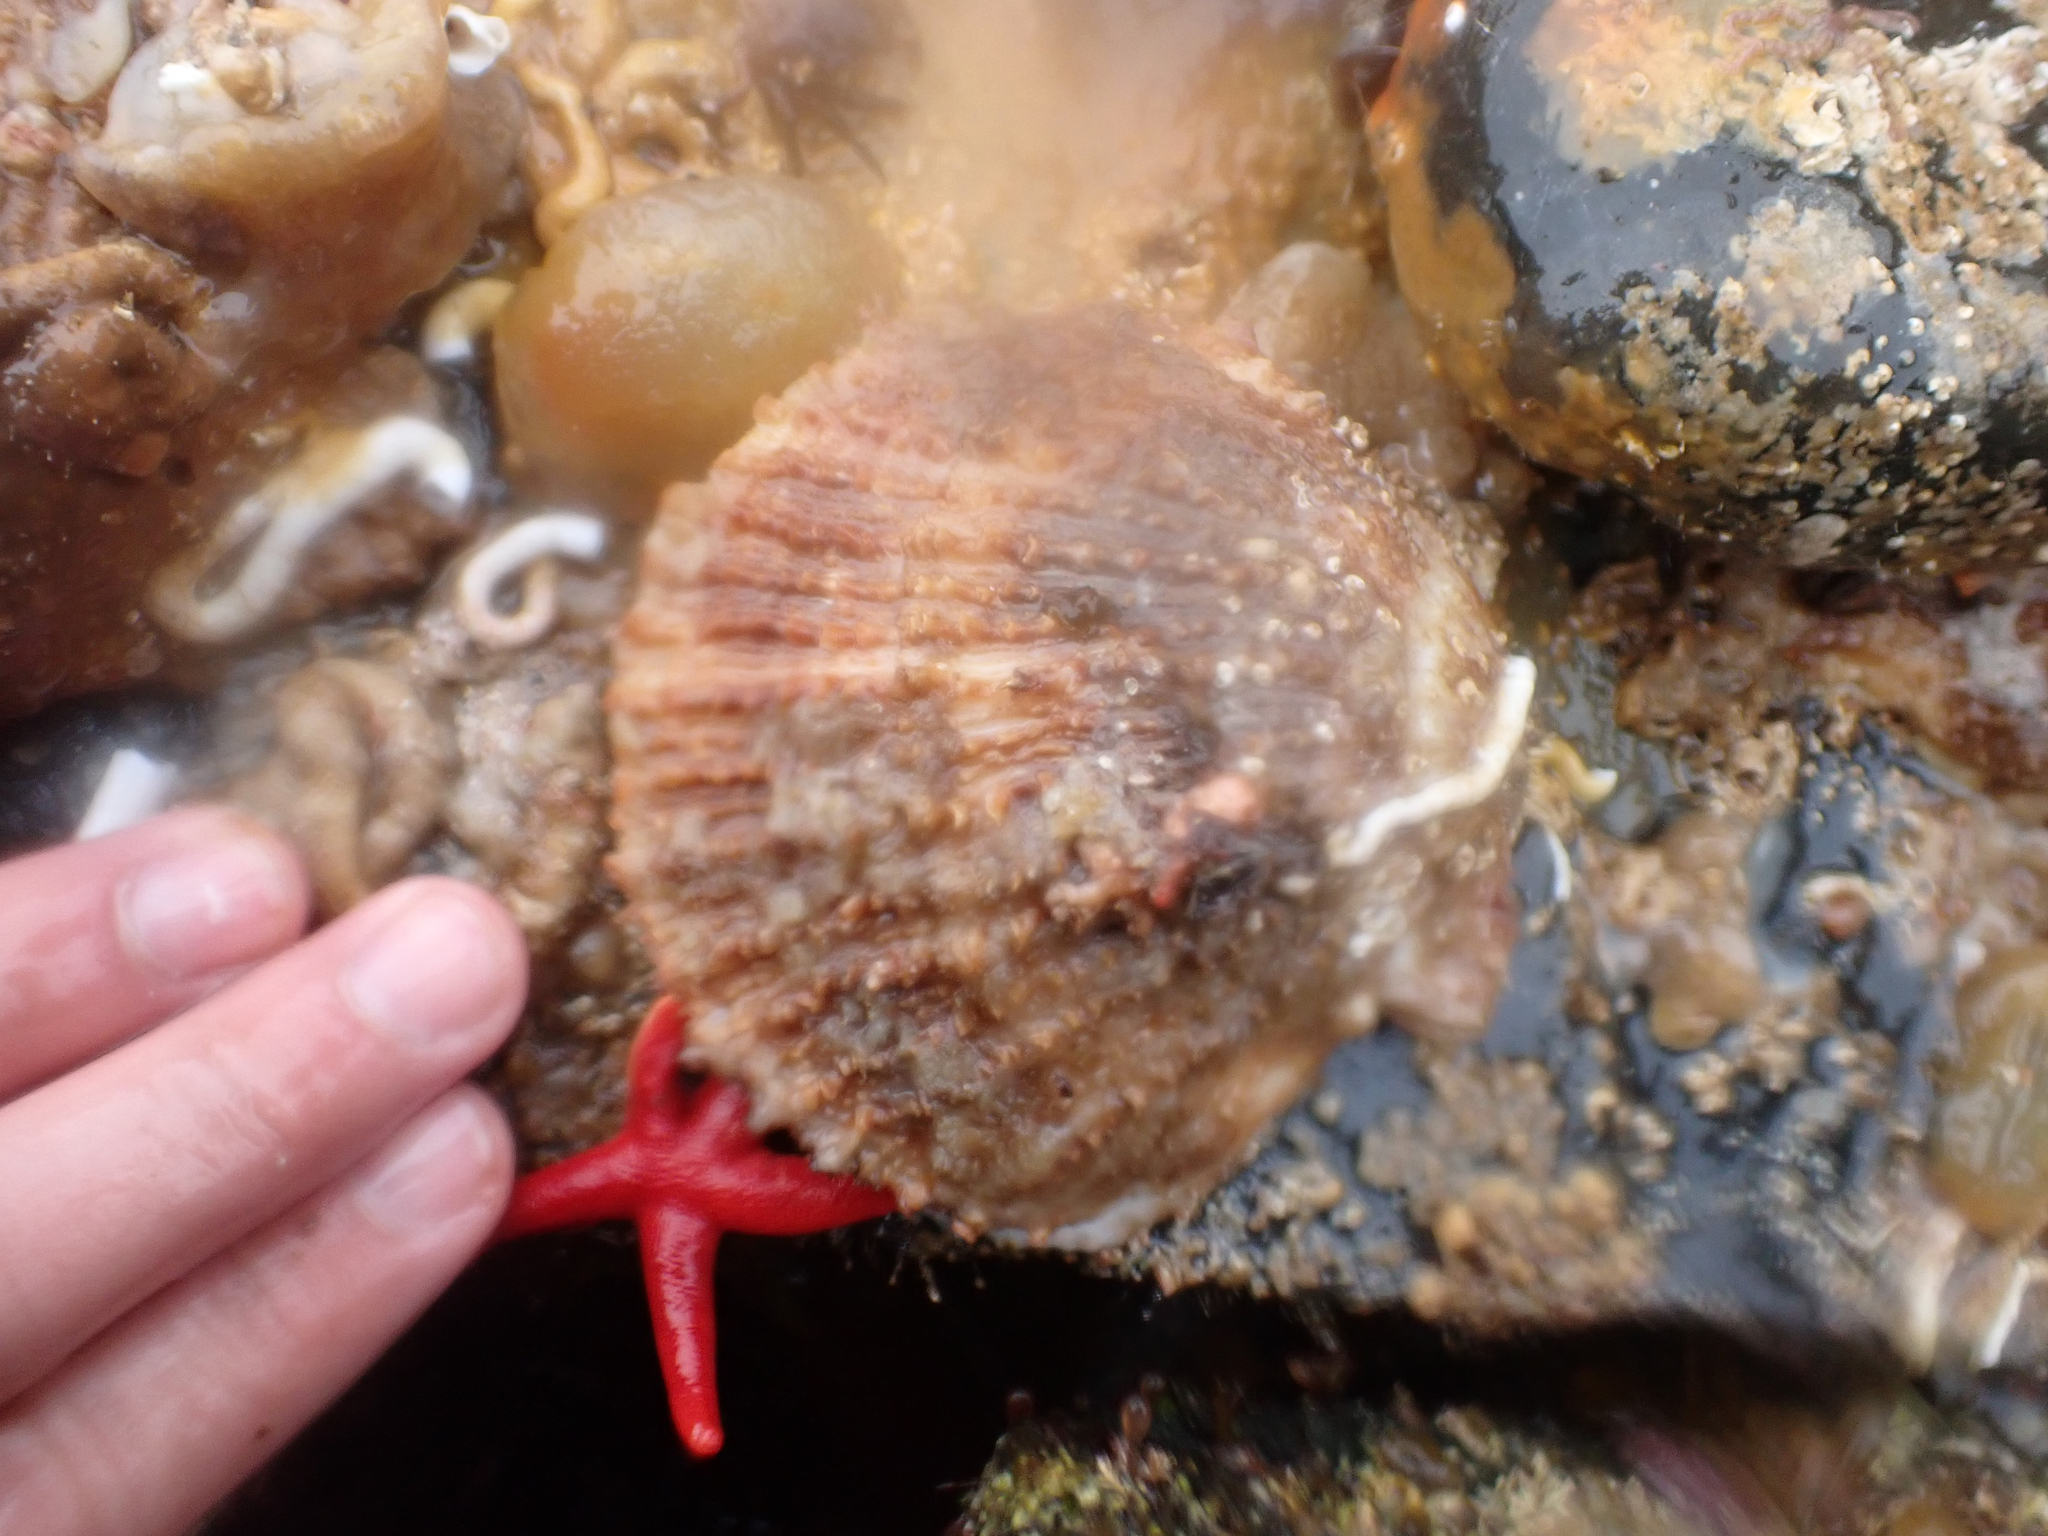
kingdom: Animalia
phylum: Mollusca
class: Bivalvia
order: Pectinida
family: Pectinidae
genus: Crassadoma
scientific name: Crassadoma gigantea
